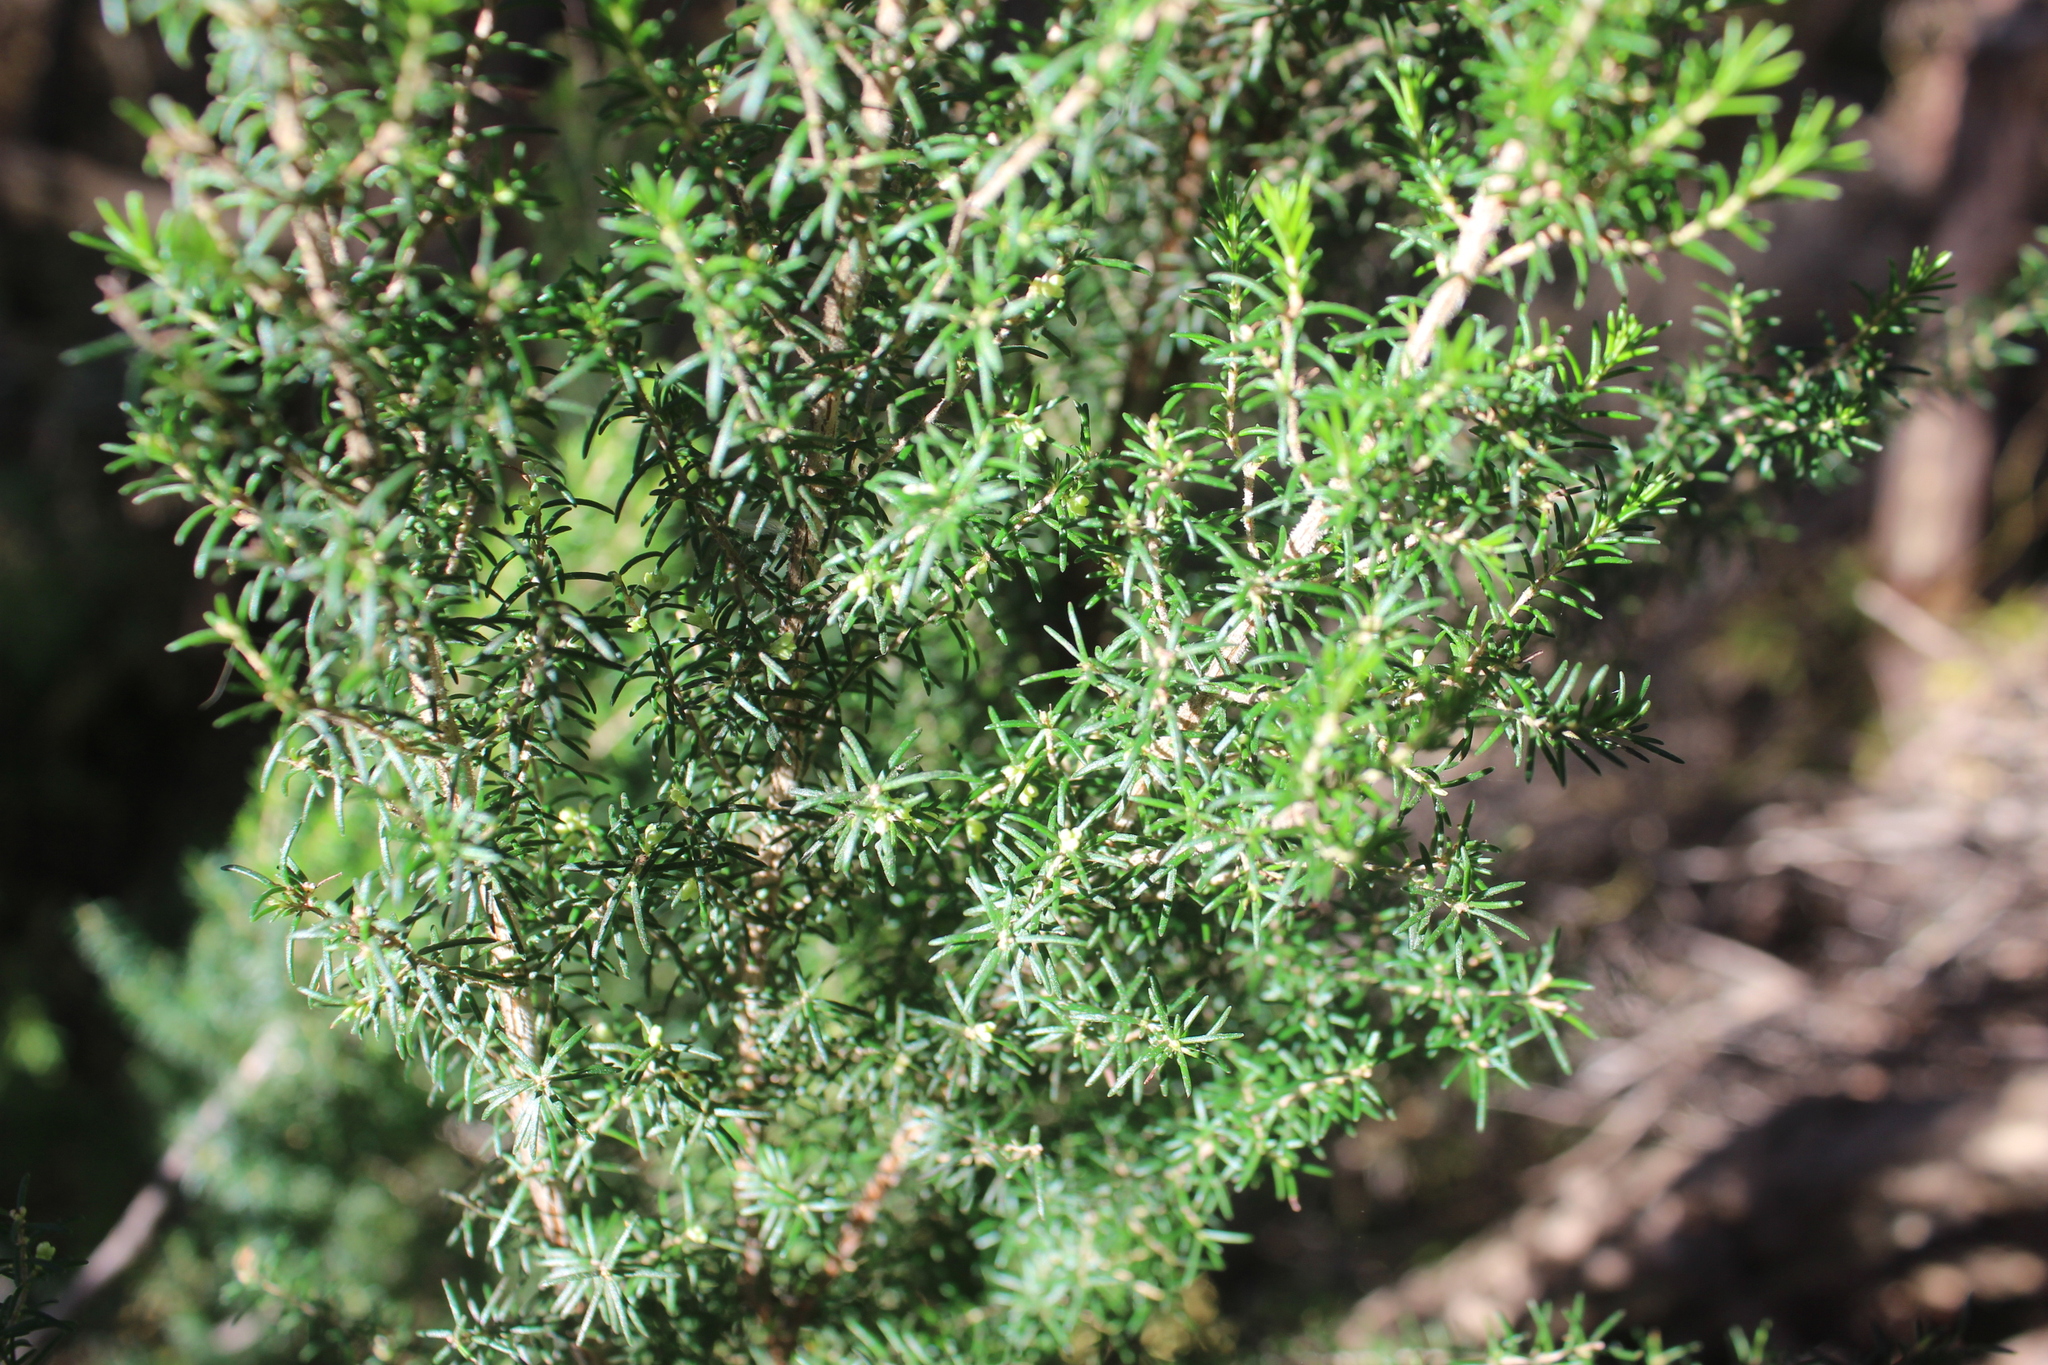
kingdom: Plantae
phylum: Tracheophyta
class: Magnoliopsida
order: Ericales
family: Ericaceae
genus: Erica
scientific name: Erica arborea
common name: Tree heath
